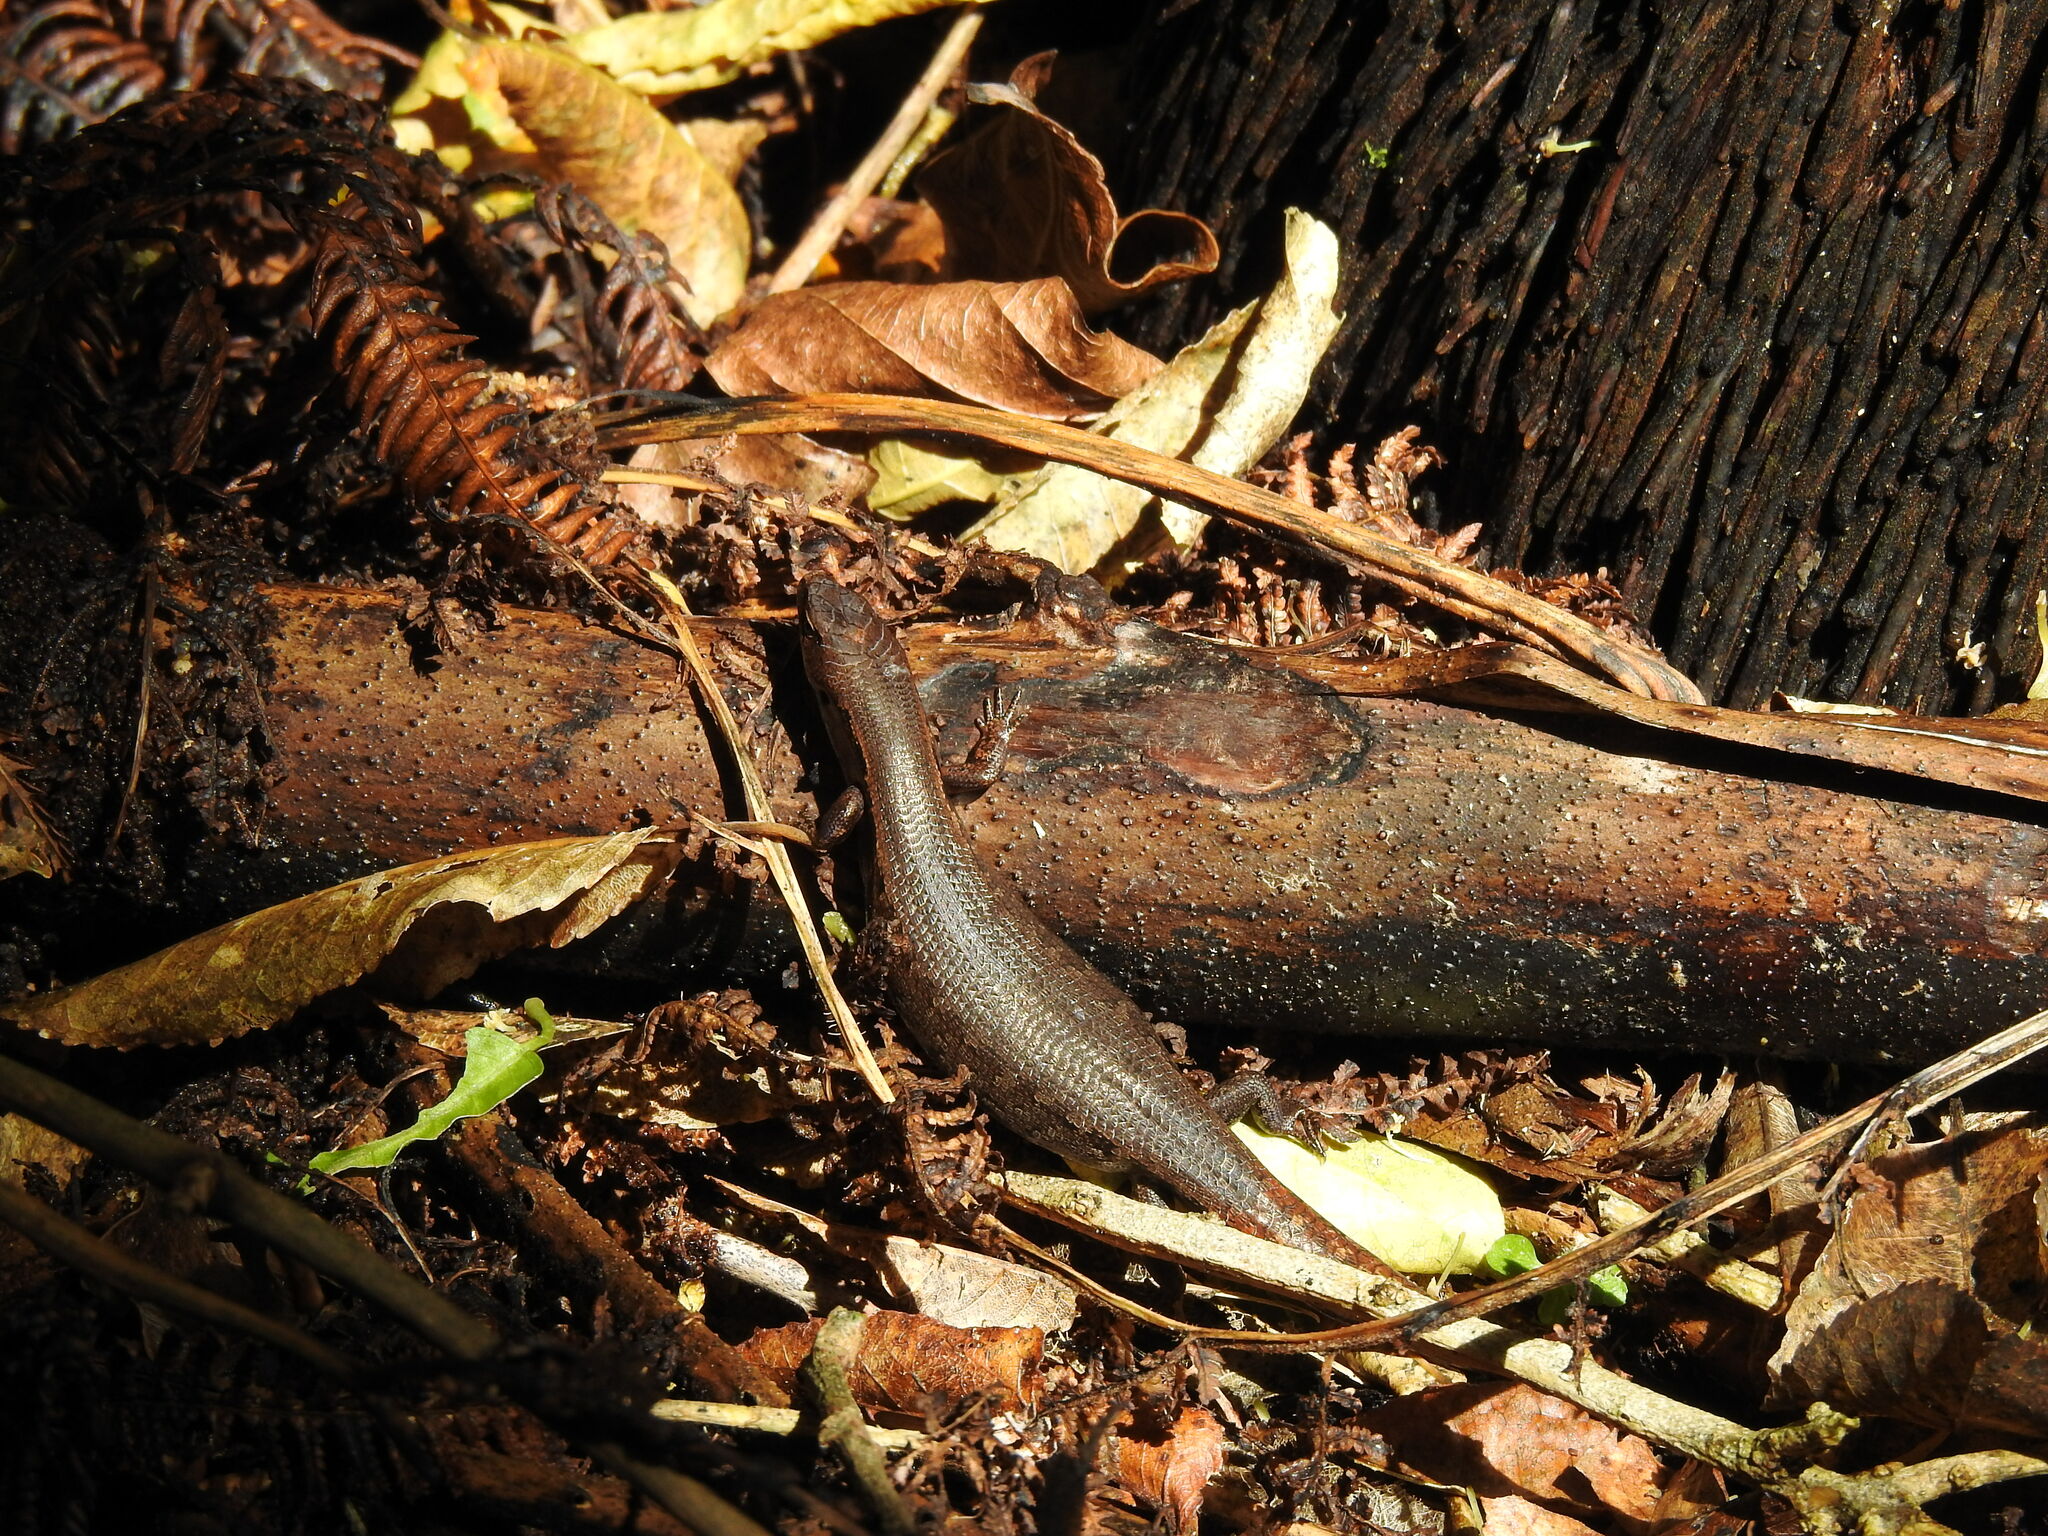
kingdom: Animalia
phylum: Chordata
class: Squamata
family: Scincidae
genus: Oligosoma
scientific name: Oligosoma ornatum
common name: Gray's ornate skink
